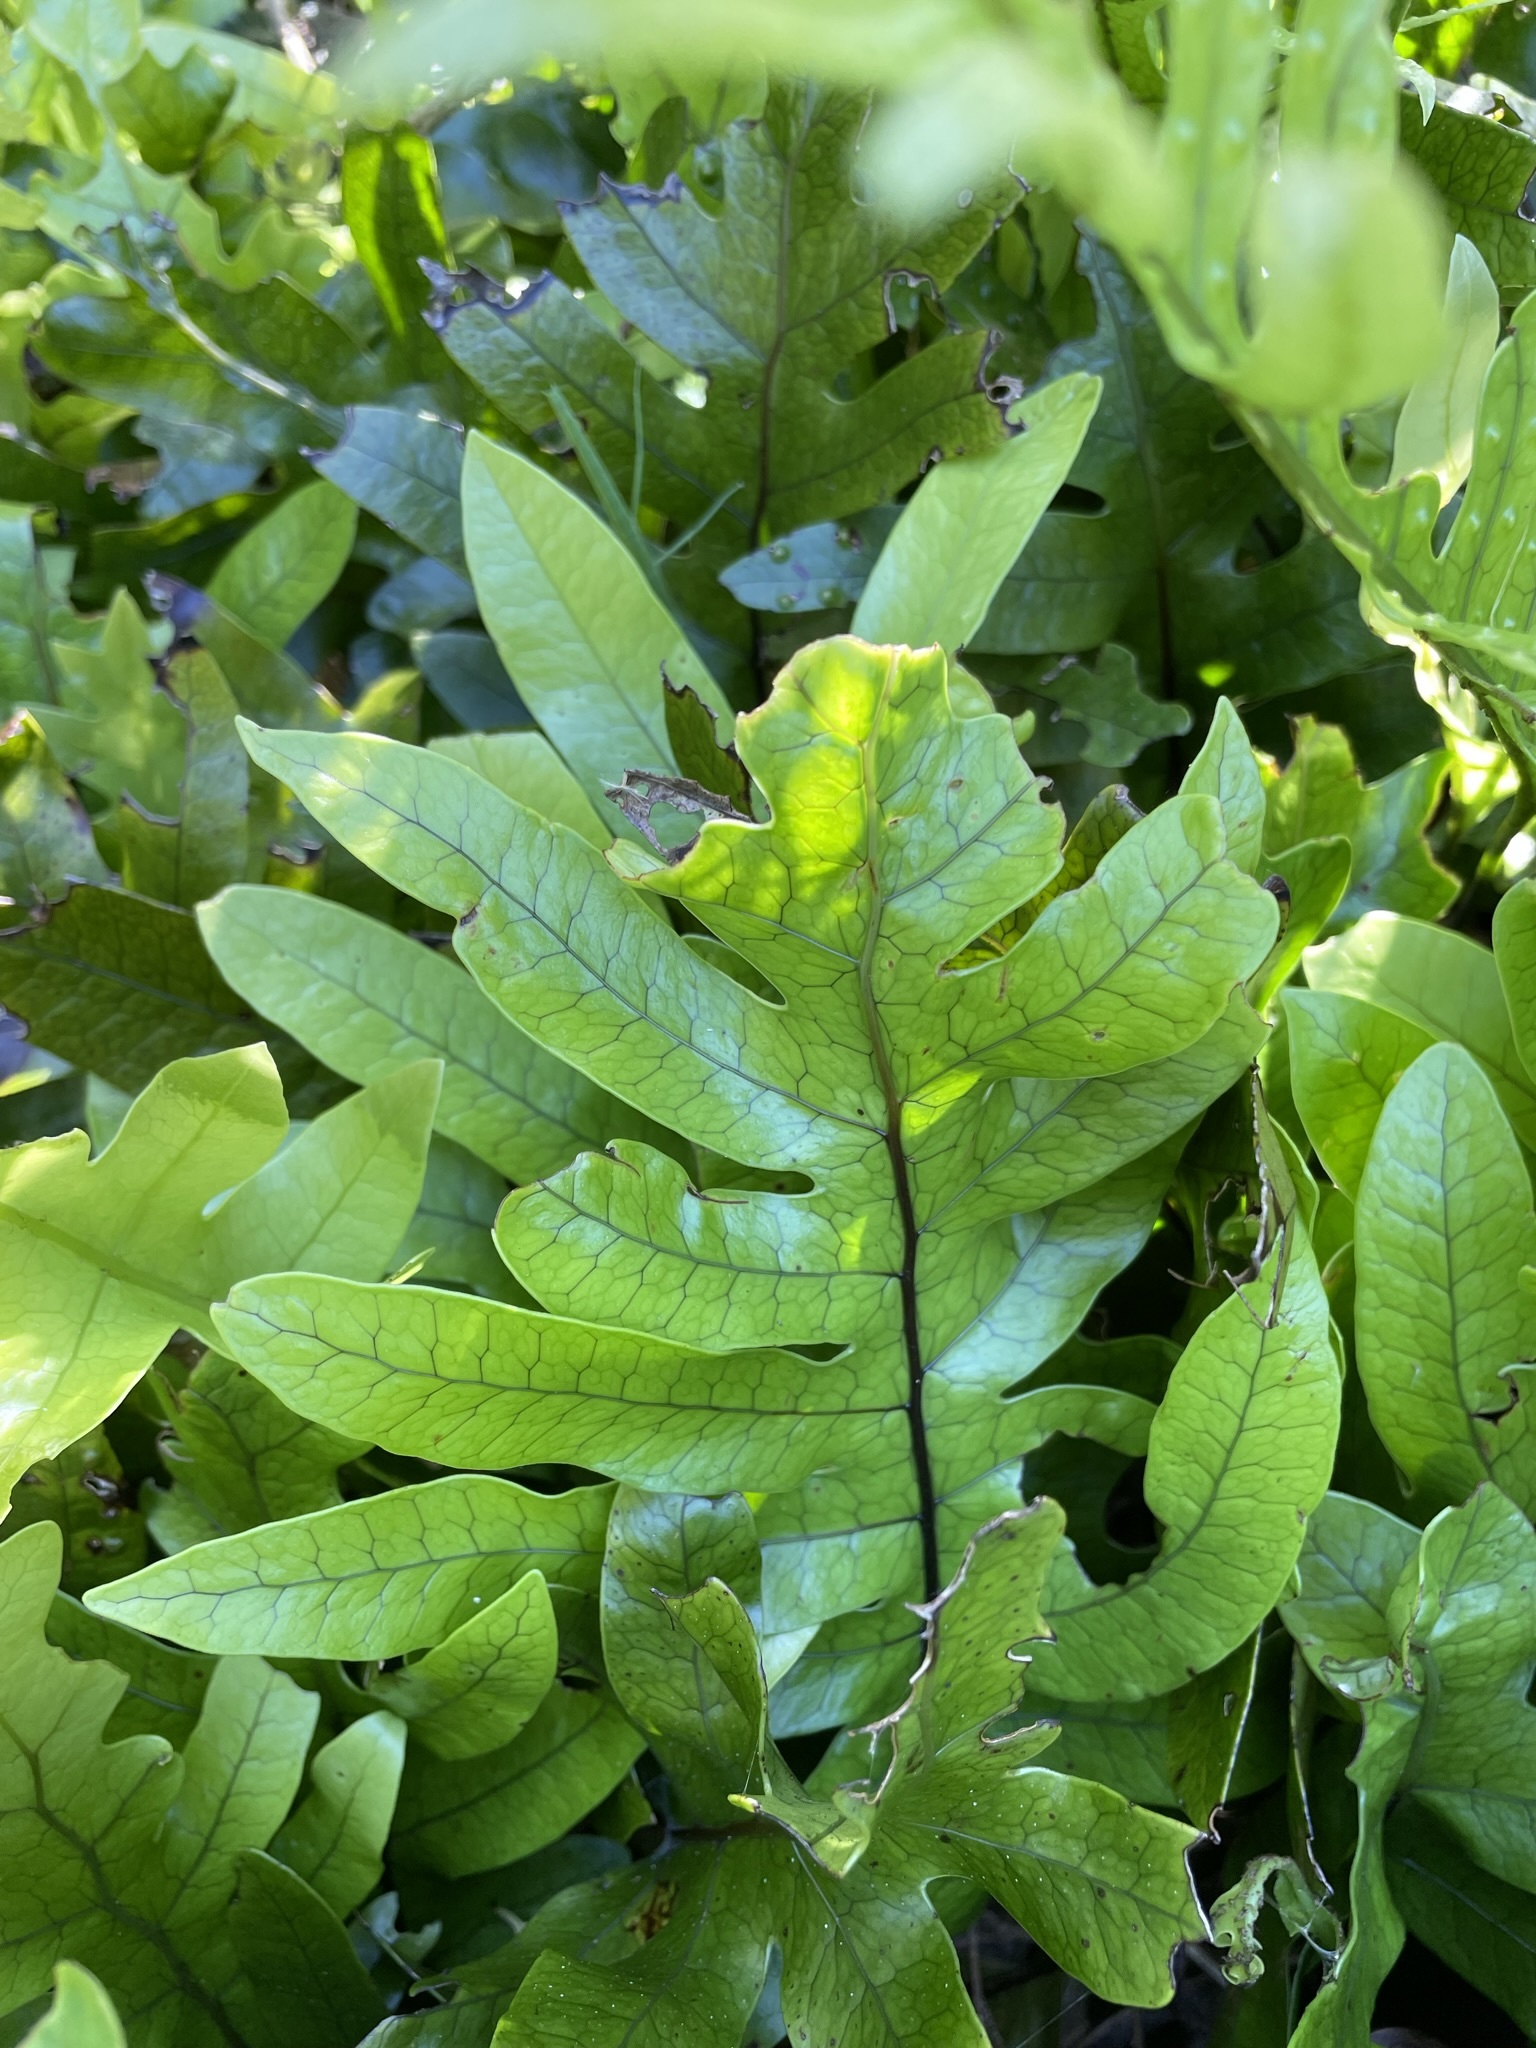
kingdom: Plantae
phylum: Tracheophyta
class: Polypodiopsida
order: Polypodiales
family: Polypodiaceae
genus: Lecanopteris
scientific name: Lecanopteris pustulata
